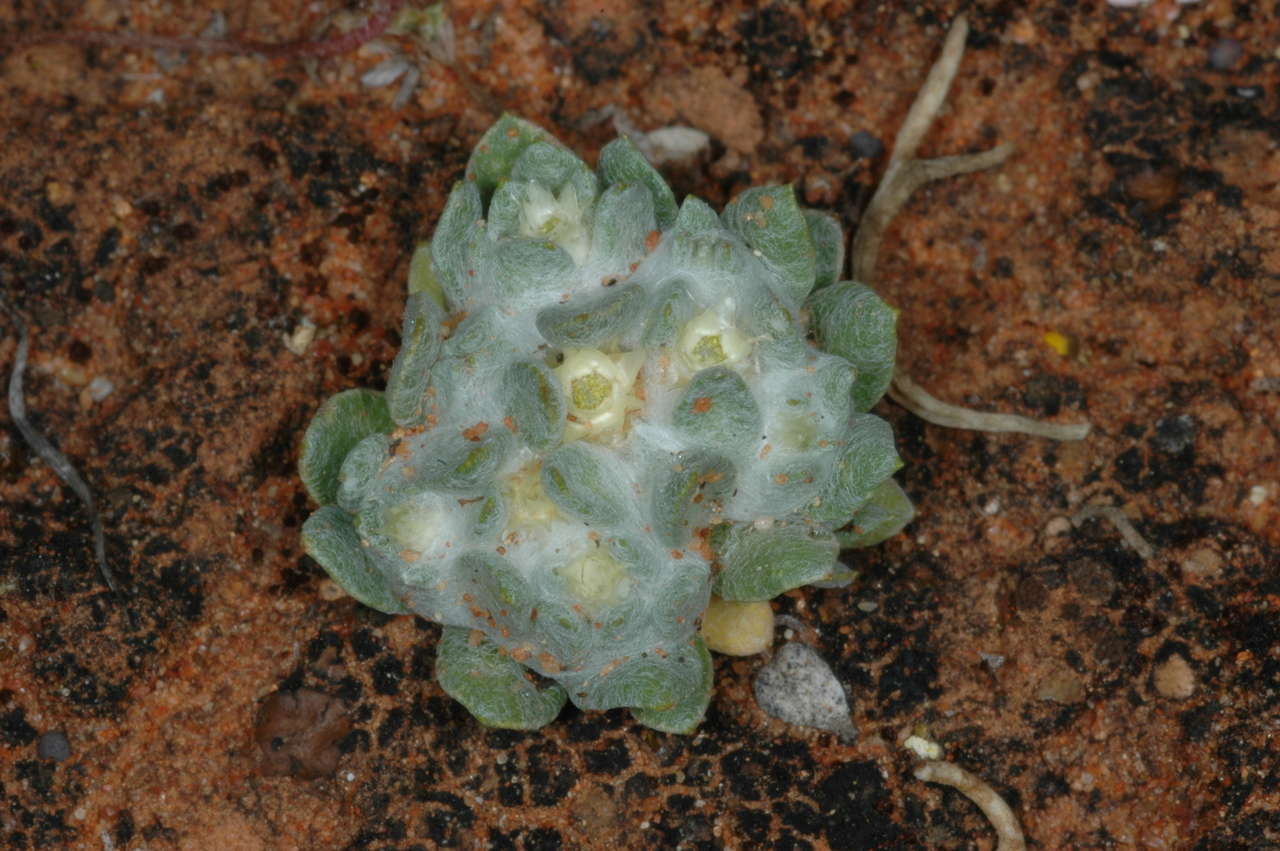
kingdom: Plantae
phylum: Tracheophyta
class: Magnoliopsida
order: Asterales
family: Asteraceae
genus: Actinobole
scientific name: Actinobole uliginosum
